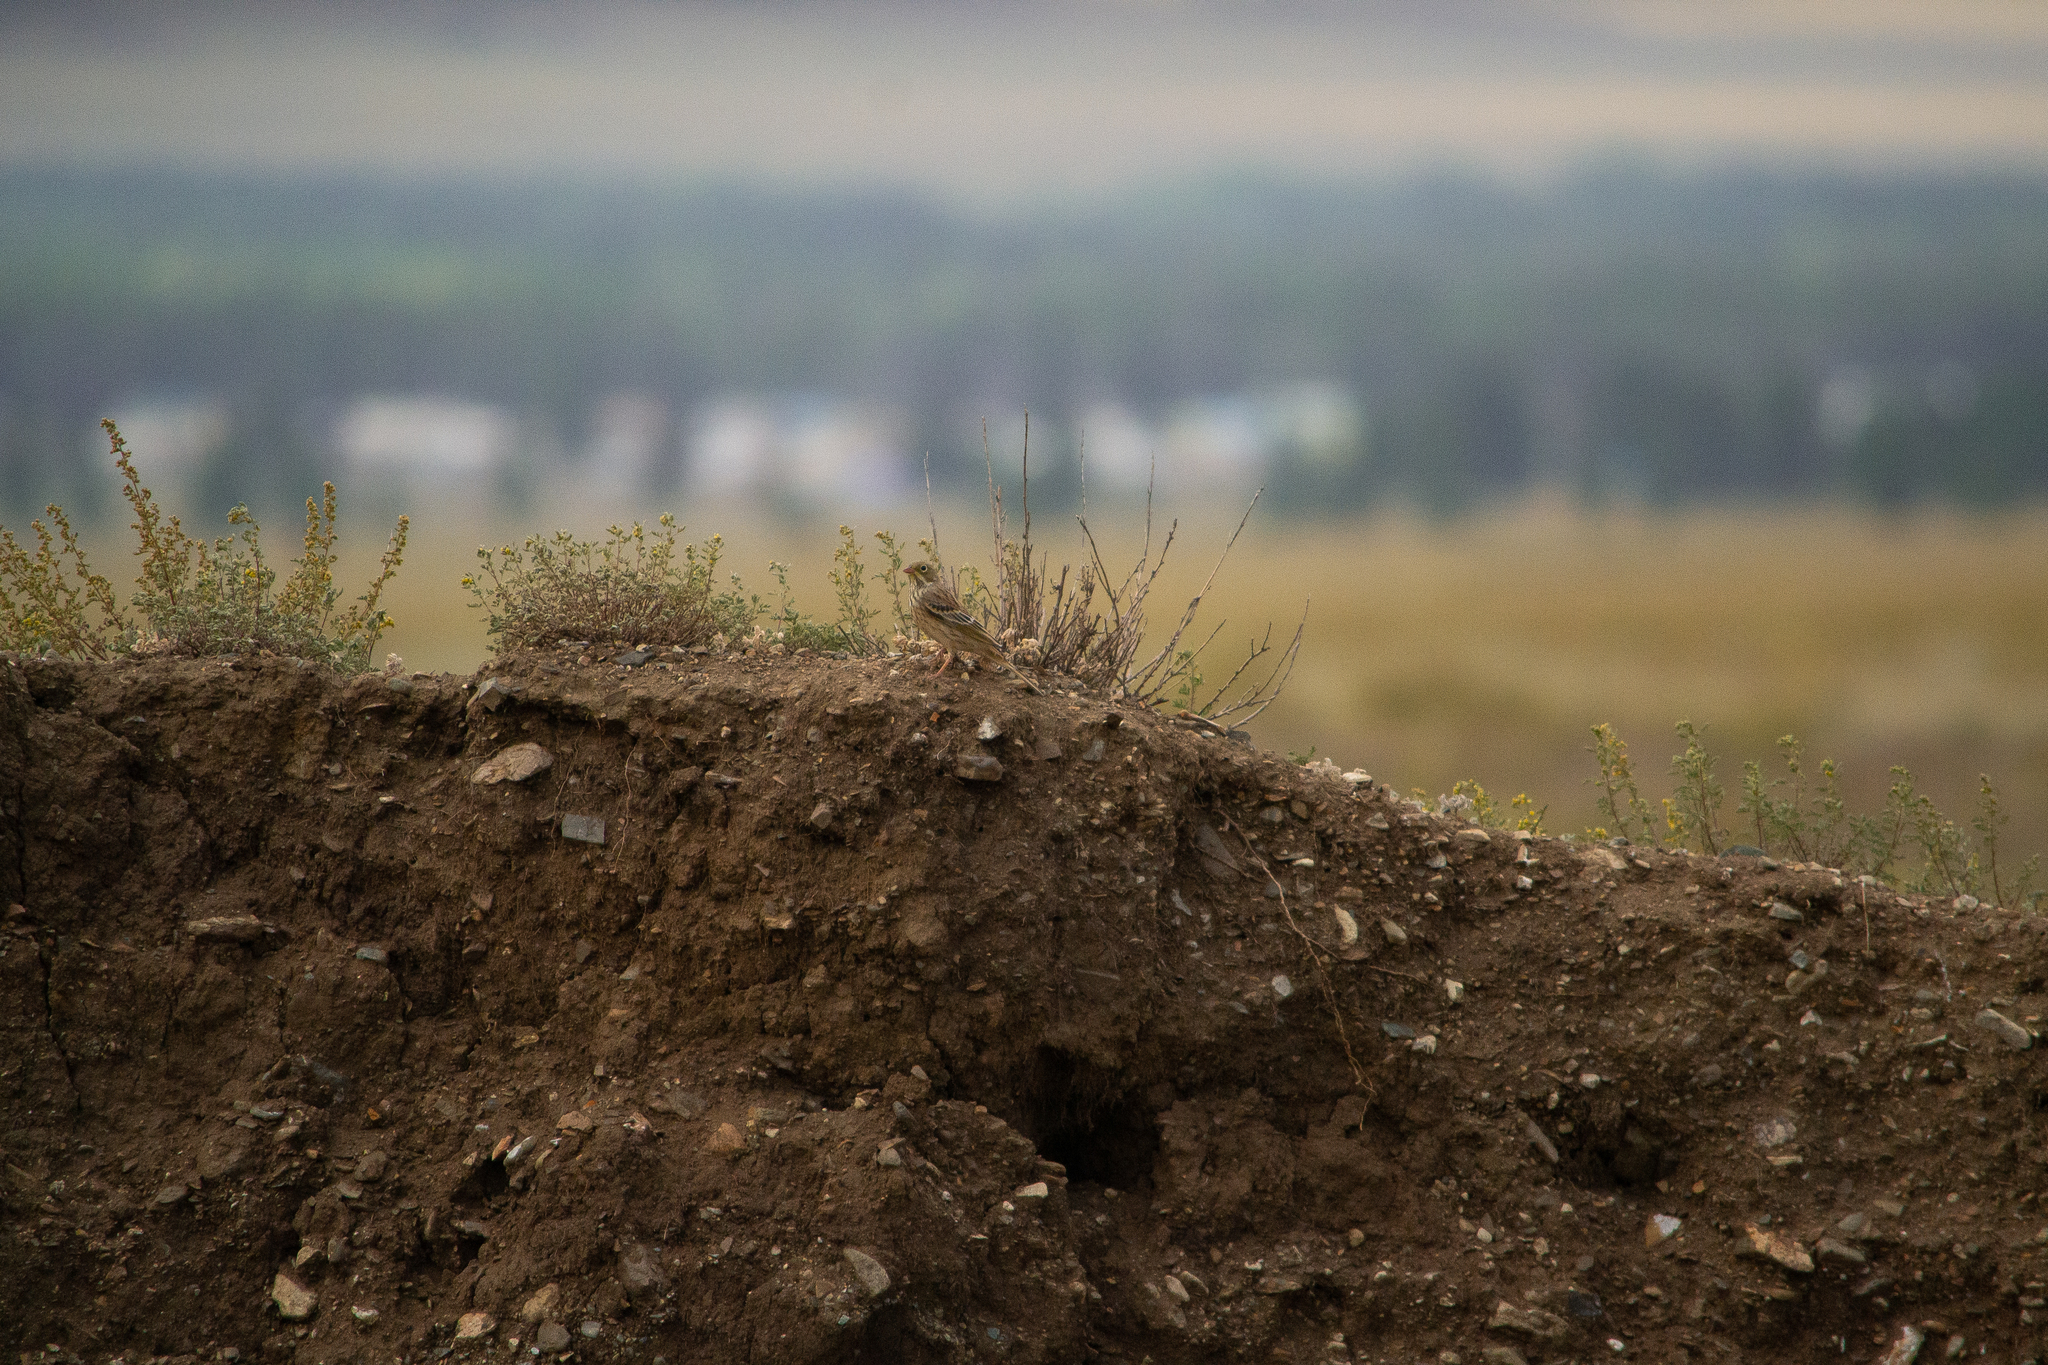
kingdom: Animalia
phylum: Chordata
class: Aves
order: Passeriformes
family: Emberizidae
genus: Emberiza
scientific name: Emberiza hortulana
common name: Ortolan bunting
